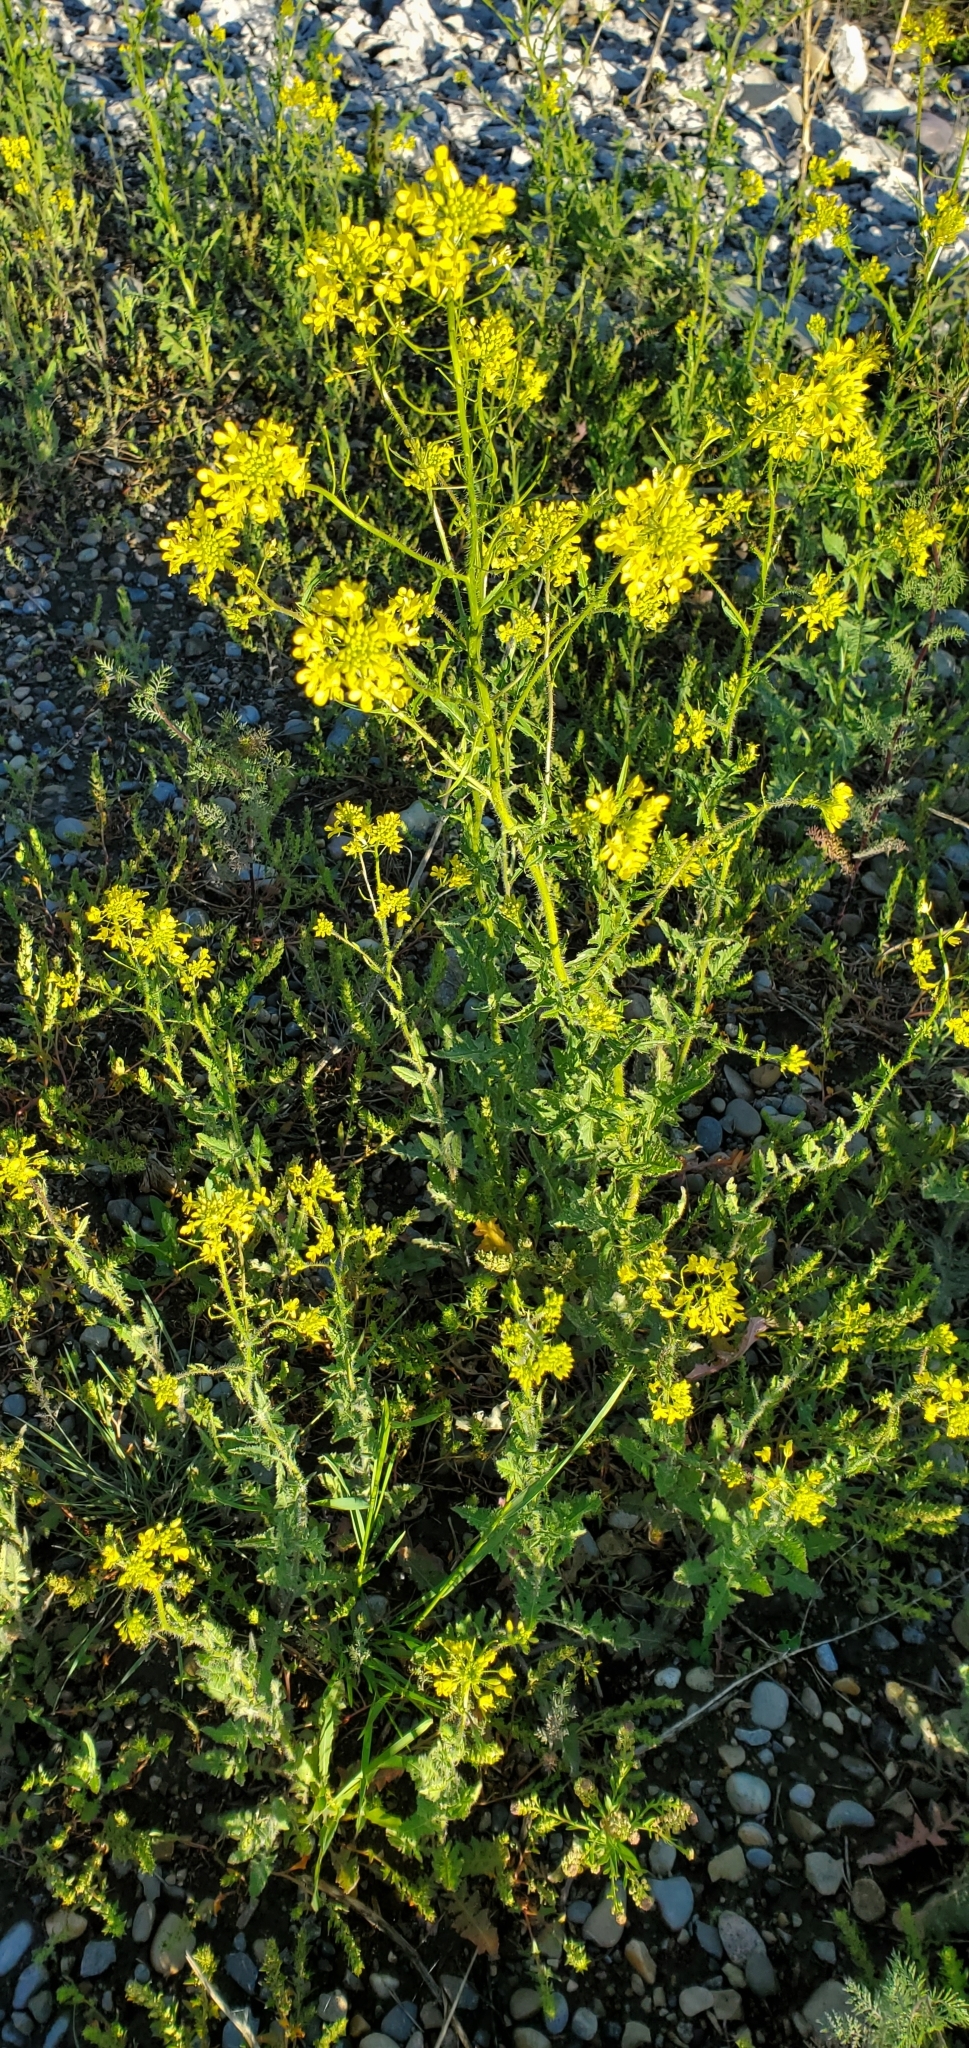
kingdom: Plantae
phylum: Tracheophyta
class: Magnoliopsida
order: Brassicales
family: Brassicaceae
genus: Sisymbrium
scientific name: Sisymbrium loeselii
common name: False london-rocket
